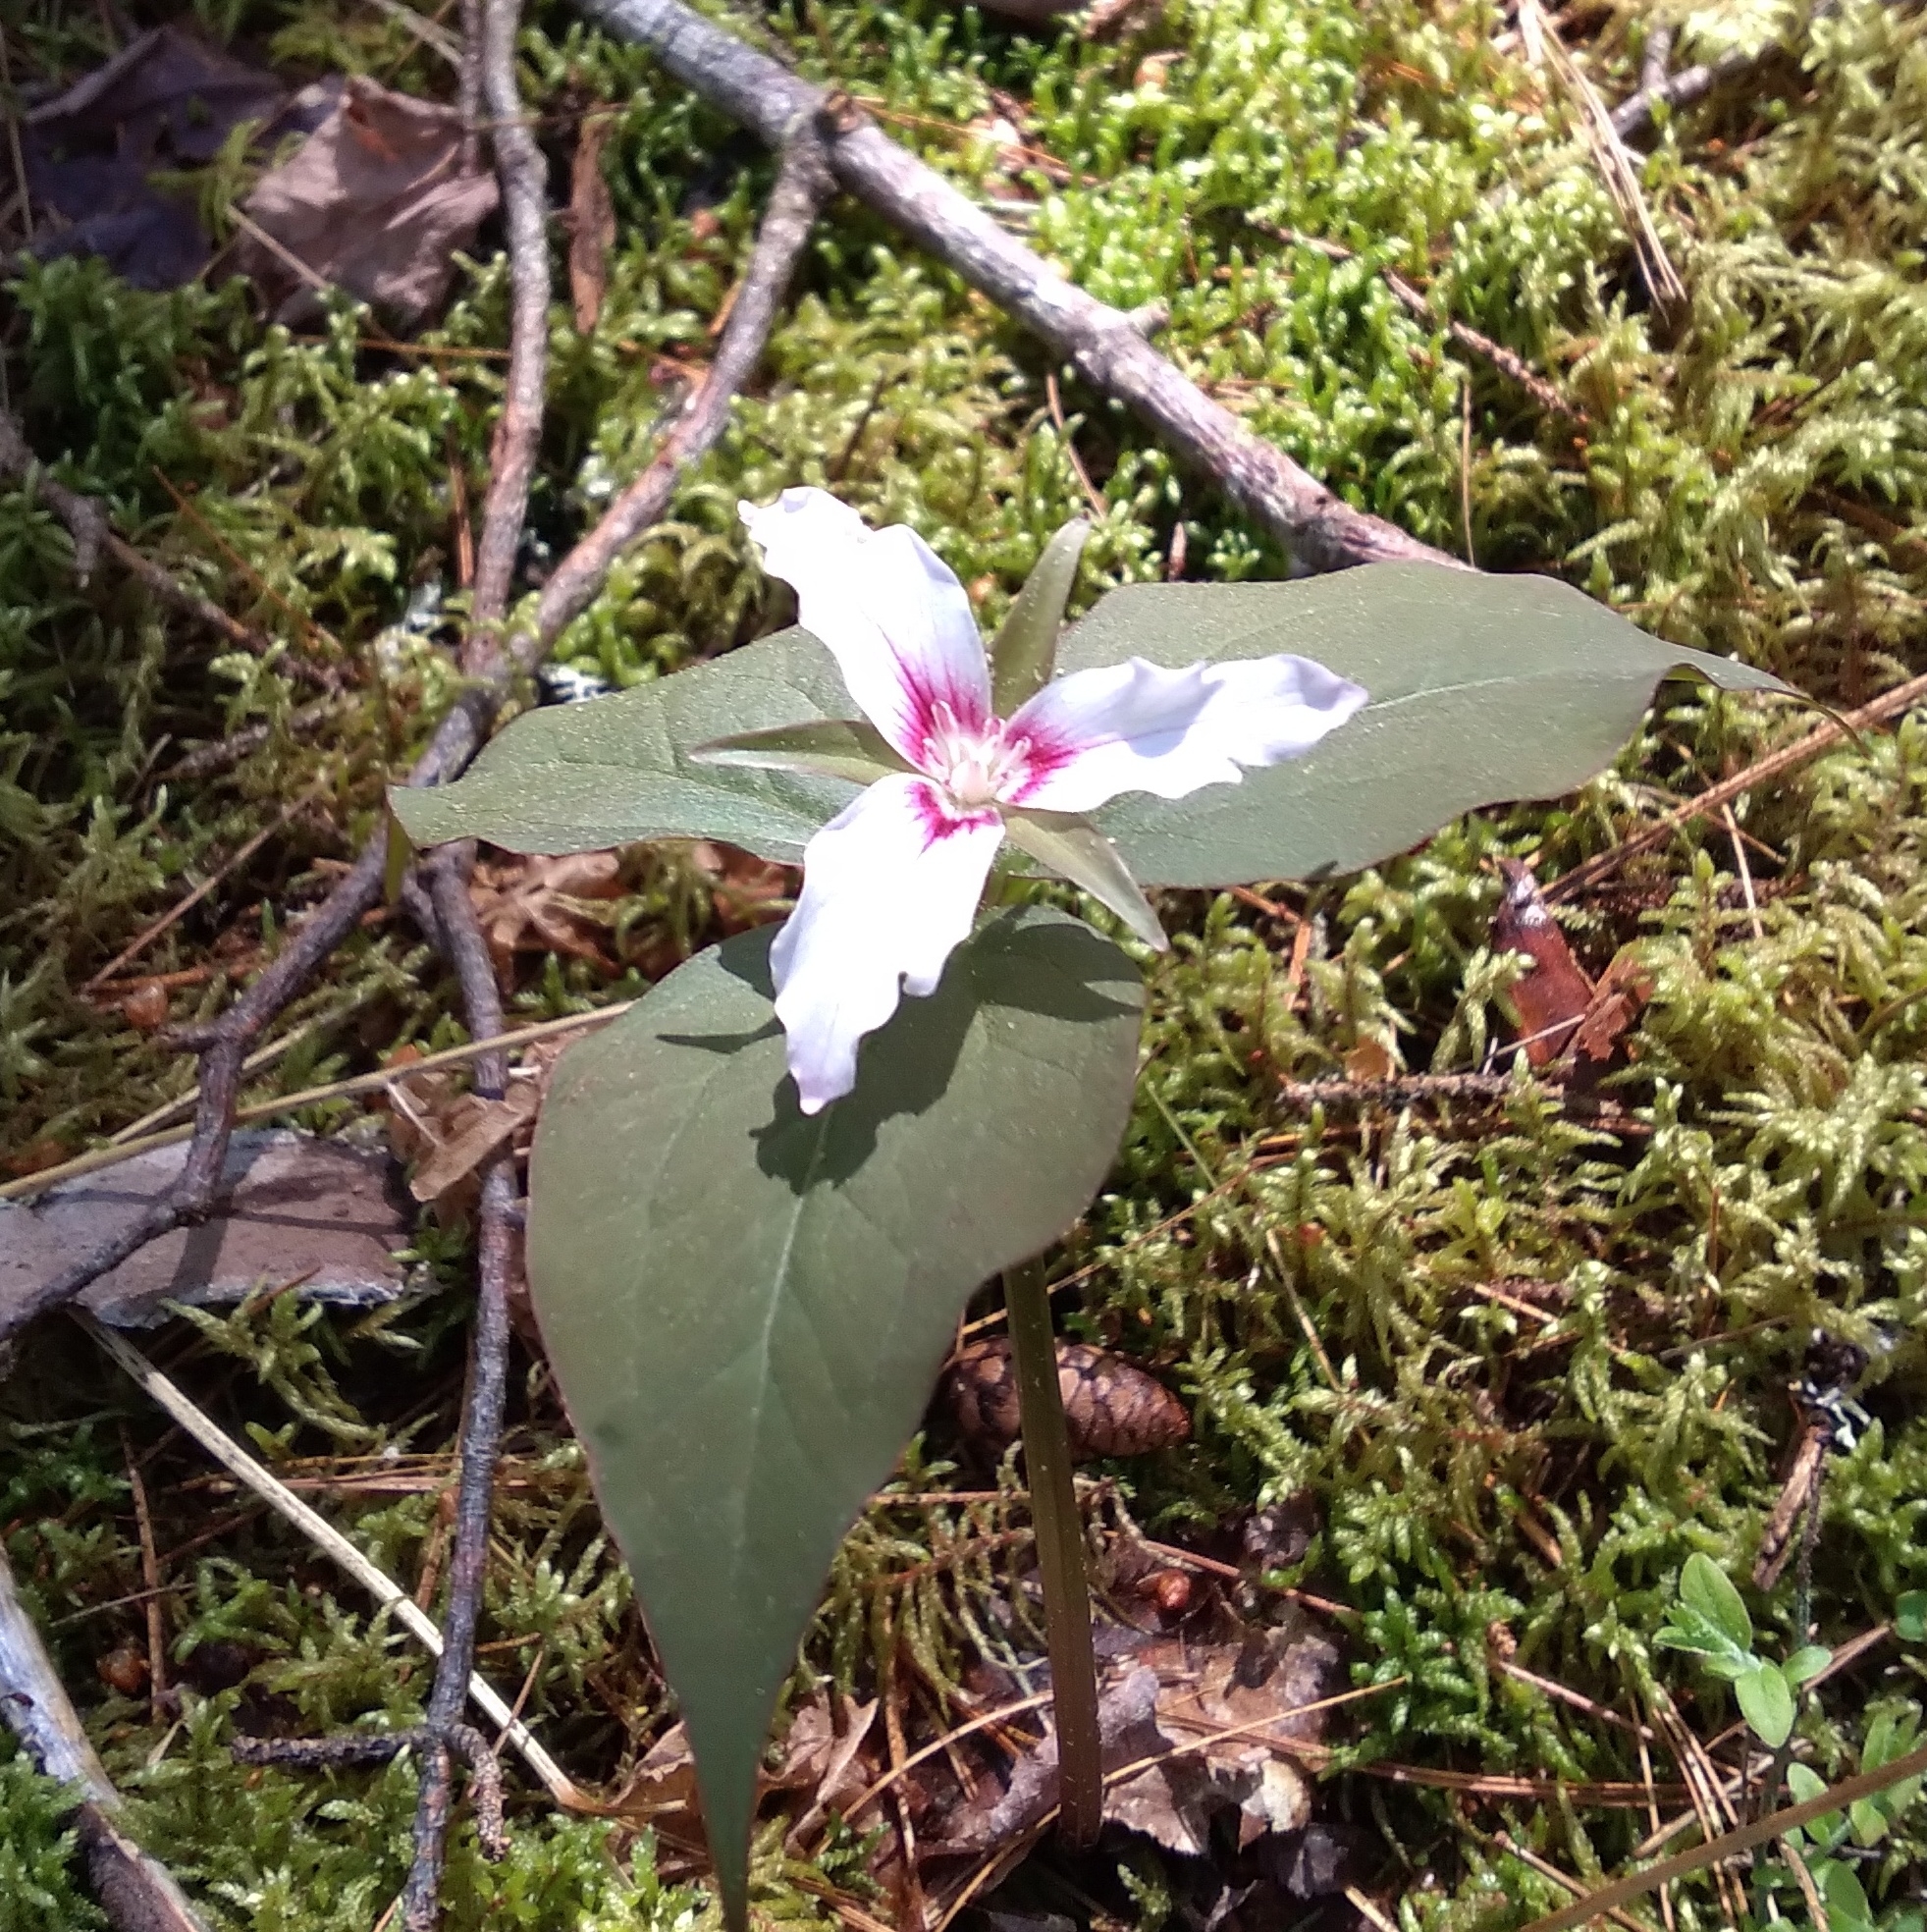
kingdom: Plantae
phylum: Tracheophyta
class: Liliopsida
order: Liliales
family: Melanthiaceae
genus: Trillium
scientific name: Trillium undulatum
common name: Paint trillium
